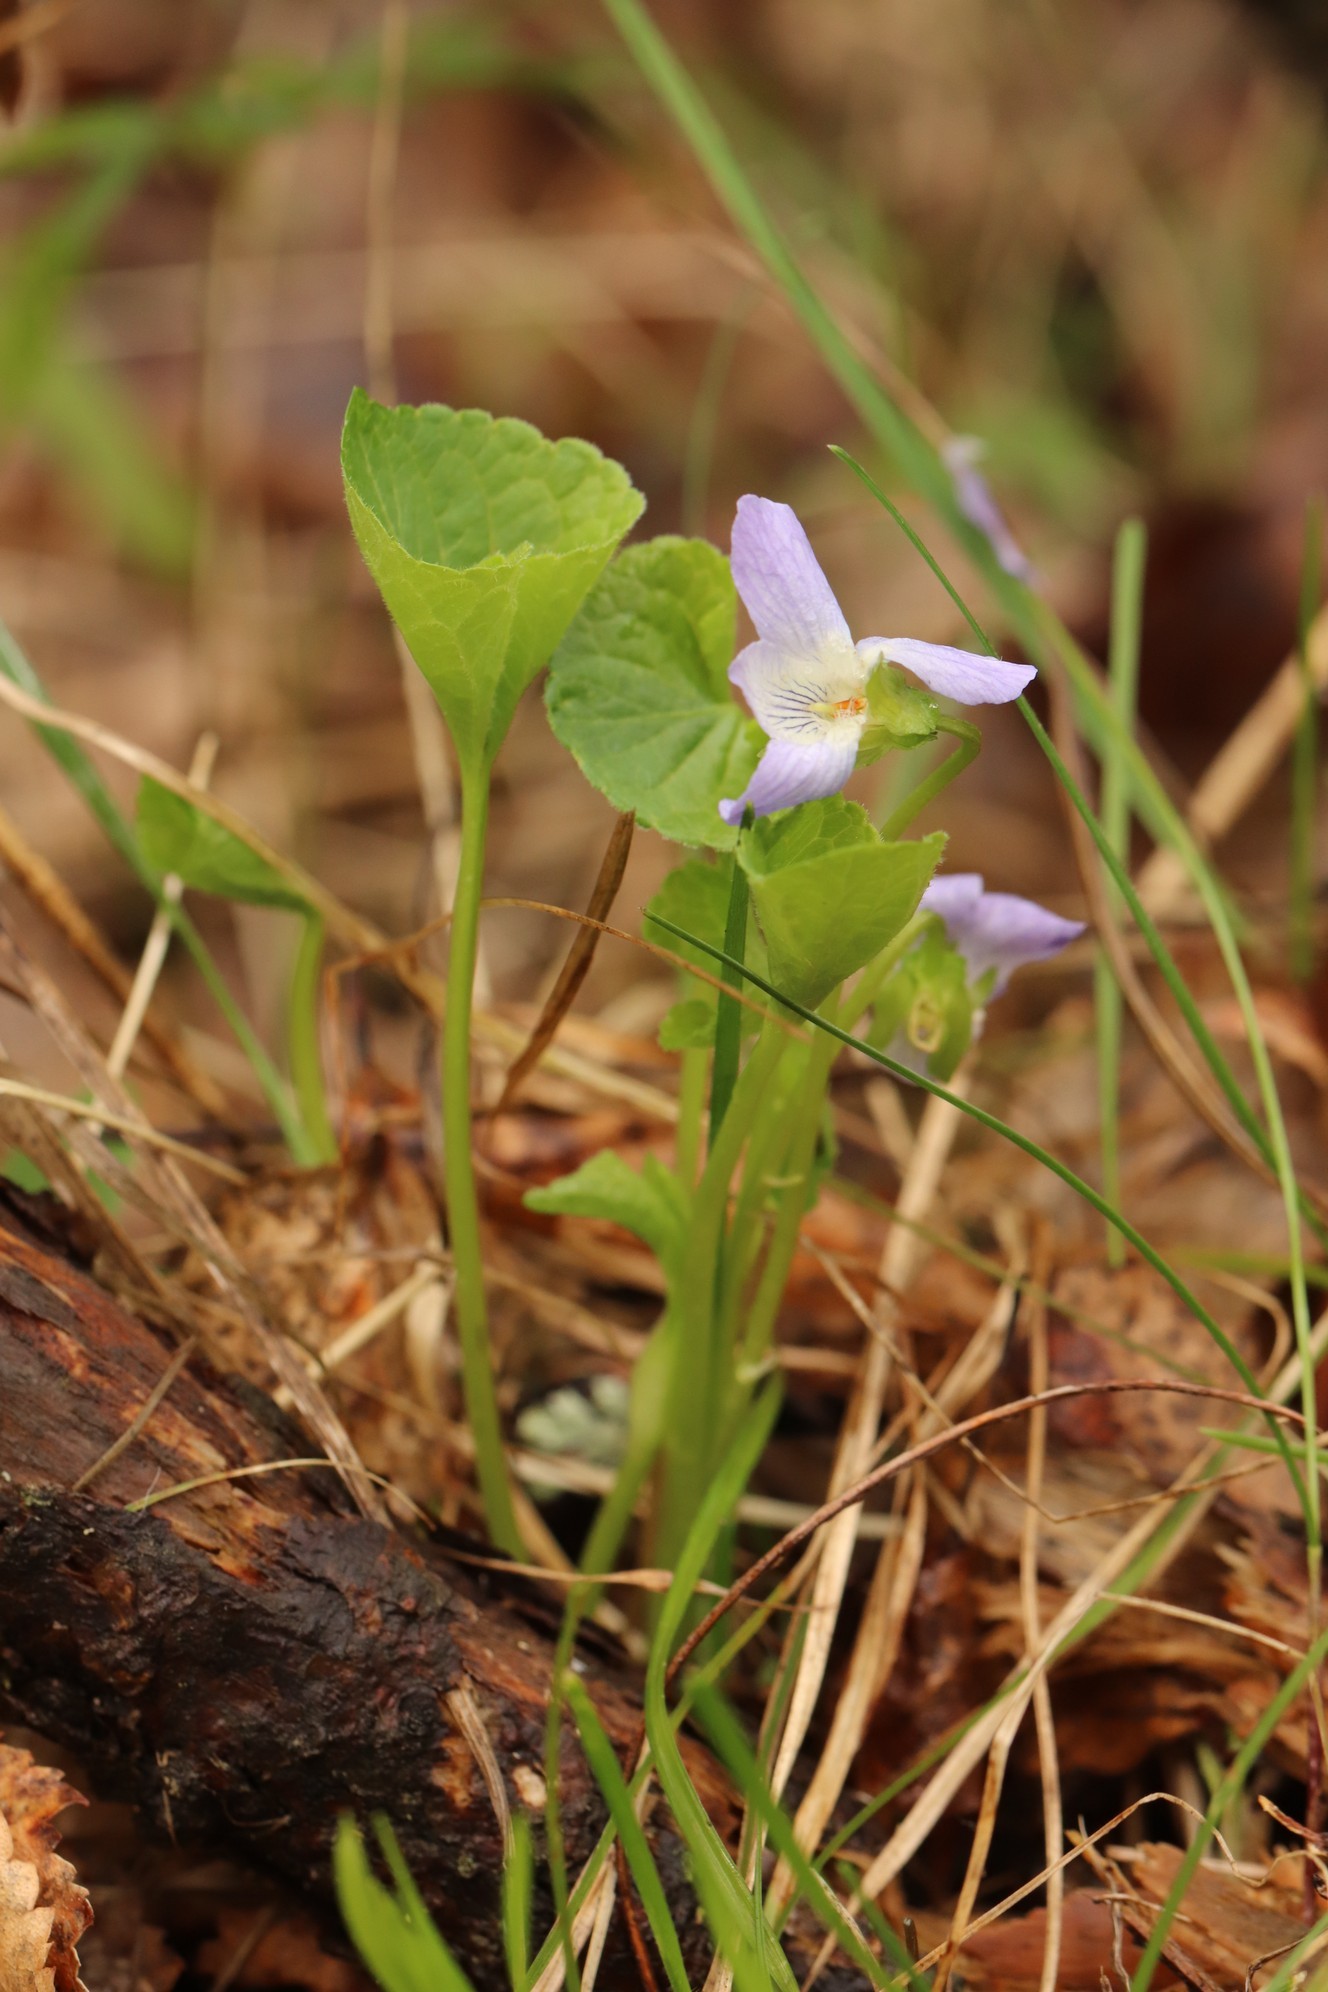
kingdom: Plantae
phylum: Tracheophyta
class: Magnoliopsida
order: Malpighiales
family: Violaceae
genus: Viola
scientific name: Viola mirabilis
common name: Wonder violet
